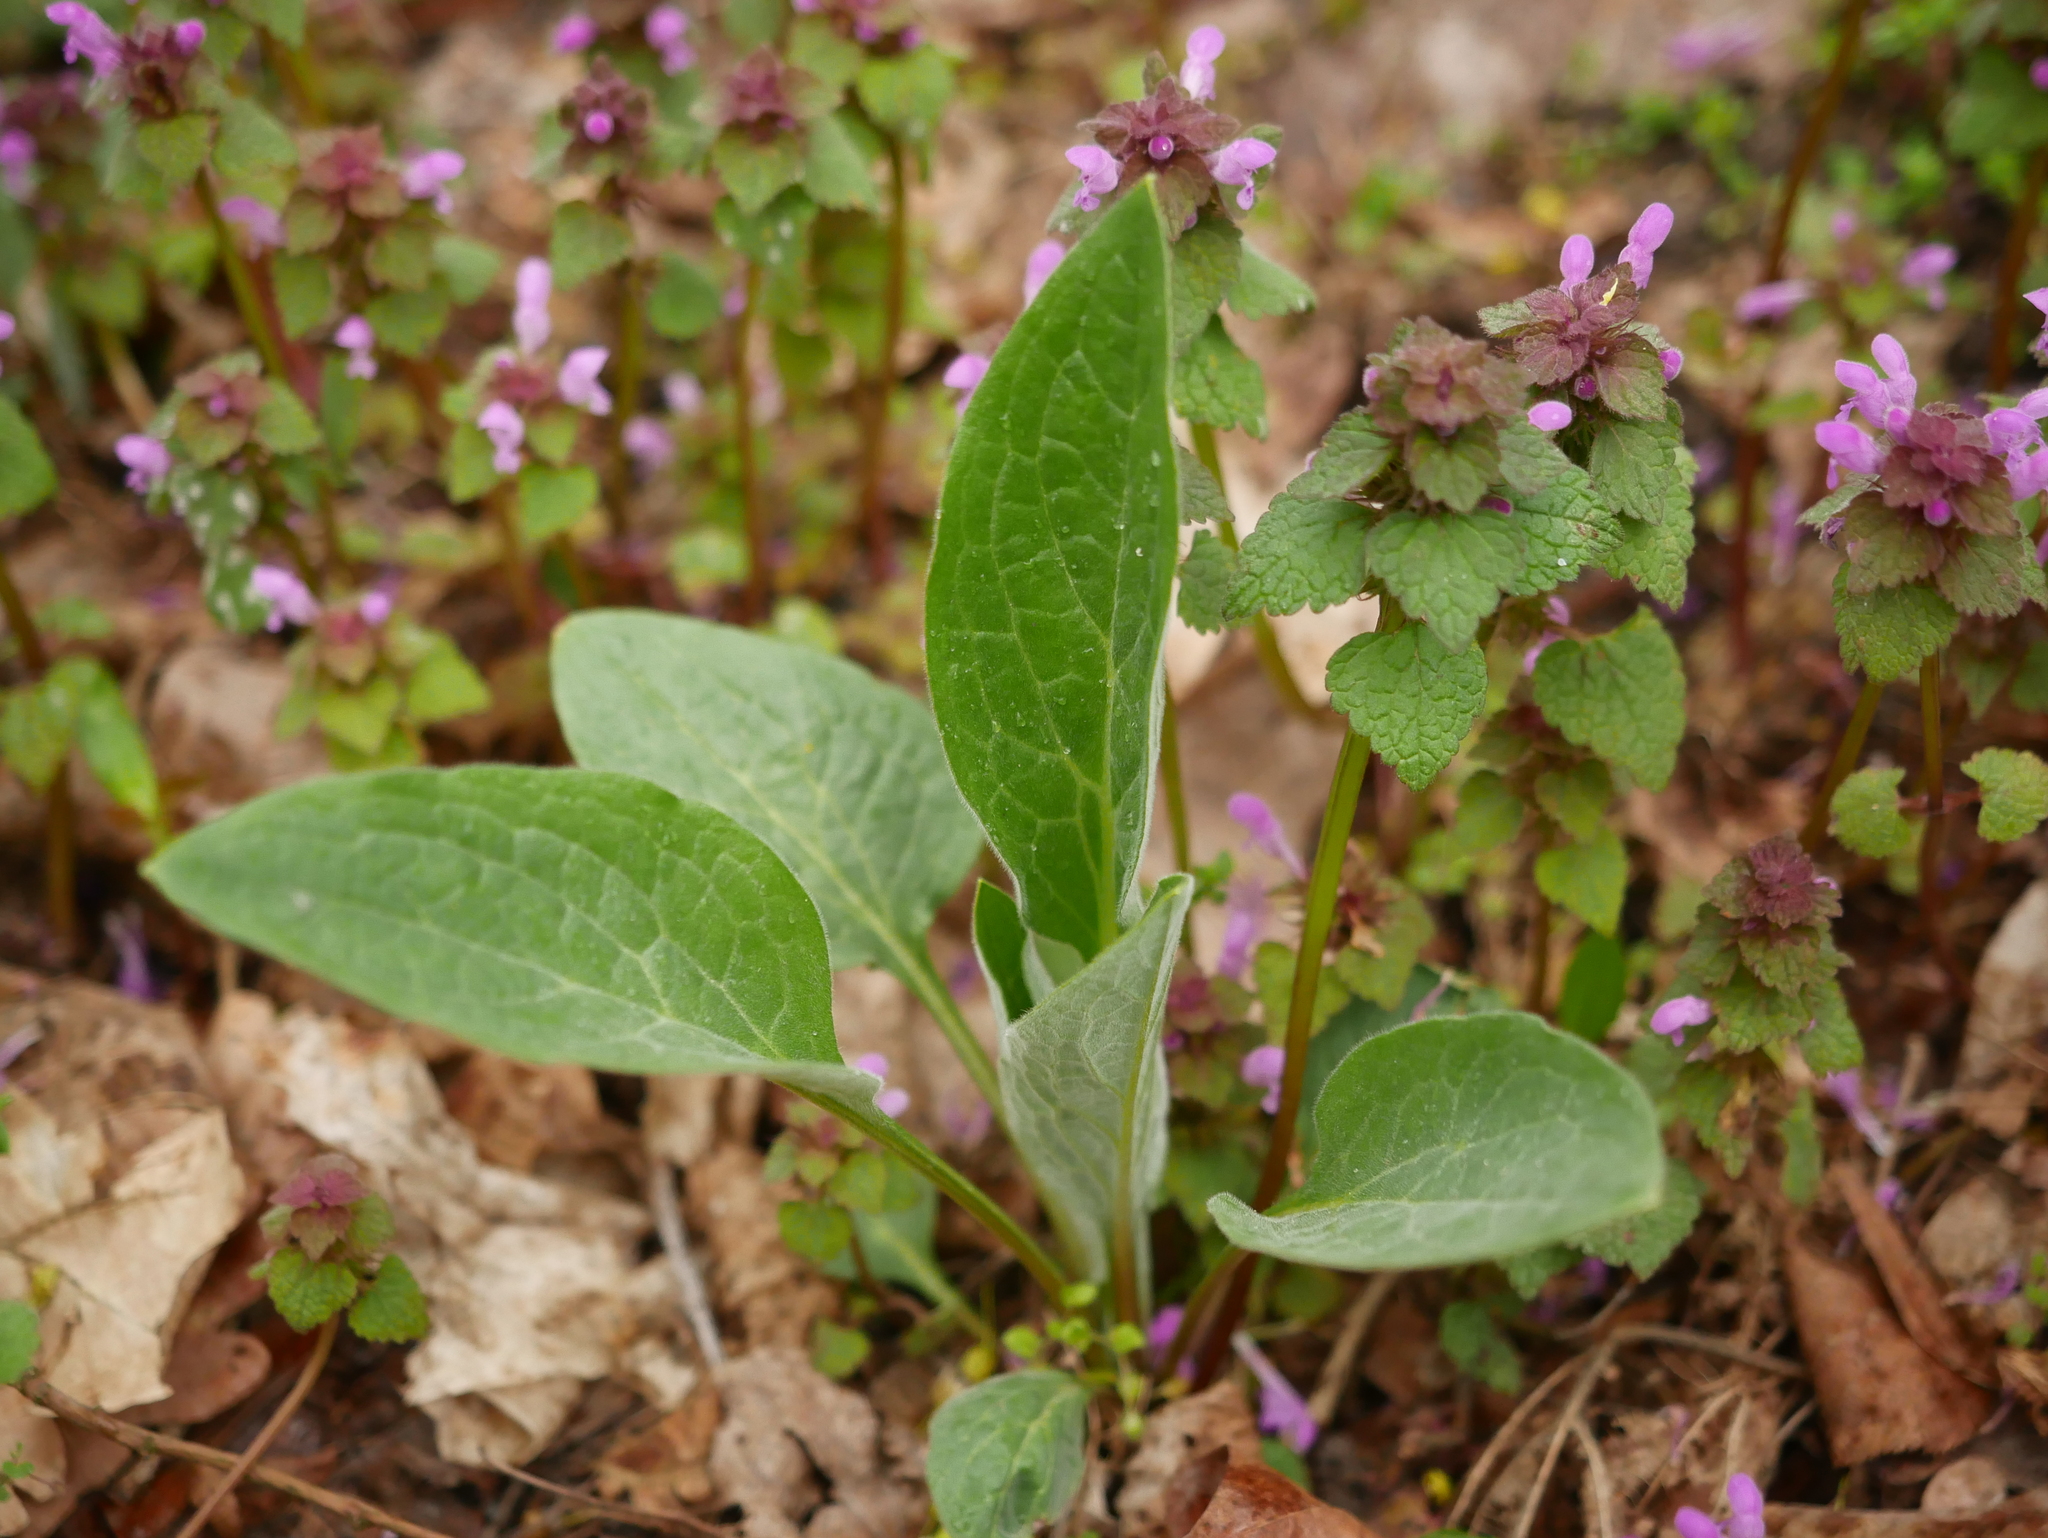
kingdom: Plantae
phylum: Tracheophyta
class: Magnoliopsida
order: Boraginales
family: Boraginaceae
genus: Cynoglossum
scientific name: Cynoglossum officinale
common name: Hound's-tongue
